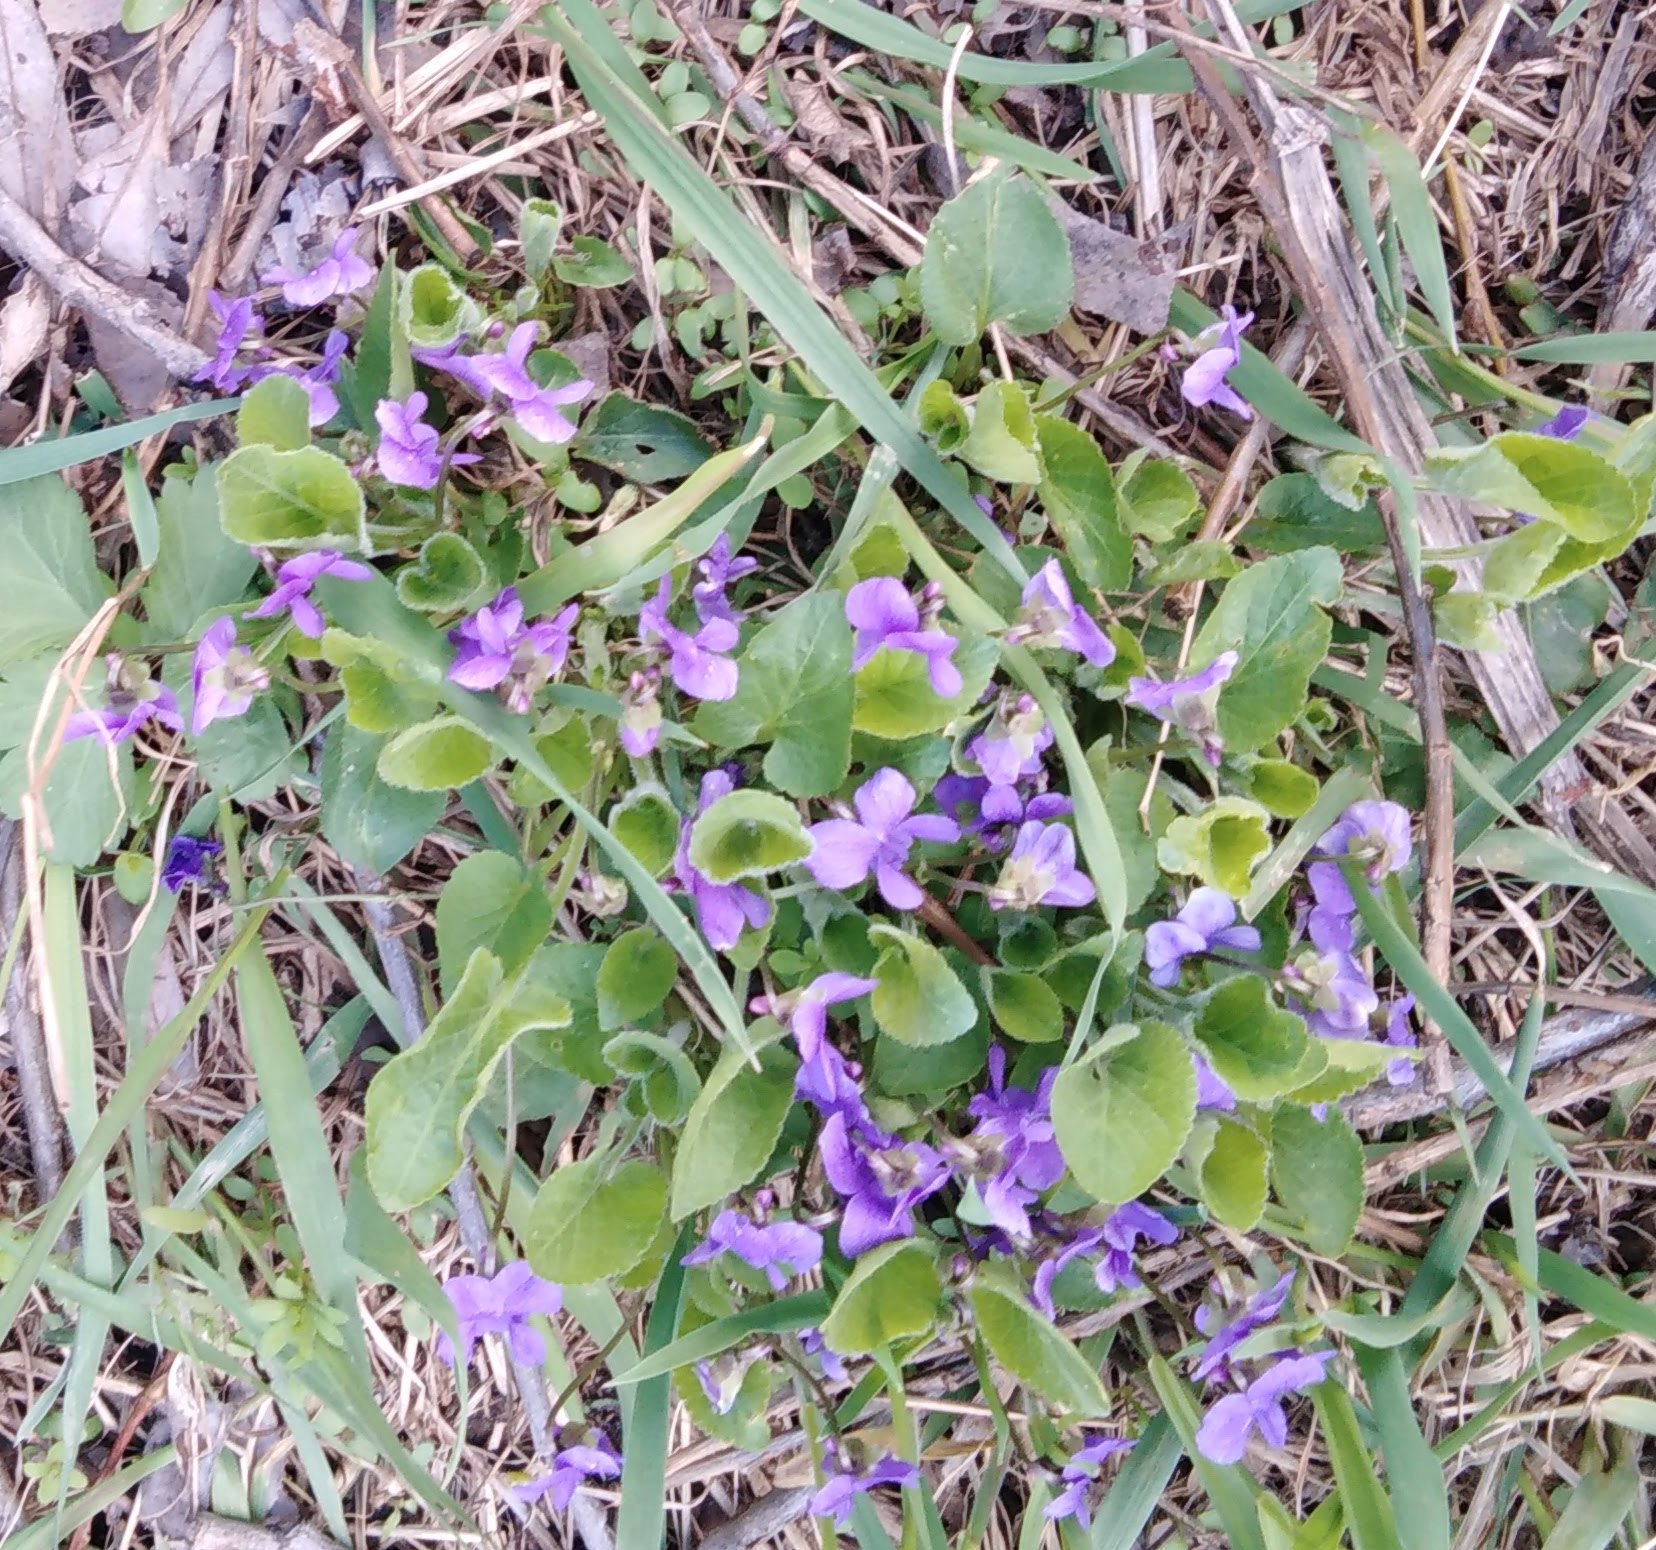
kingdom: Plantae
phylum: Tracheophyta
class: Magnoliopsida
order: Malpighiales
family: Violaceae
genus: Viola
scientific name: Viola hirta
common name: Hairy violet
